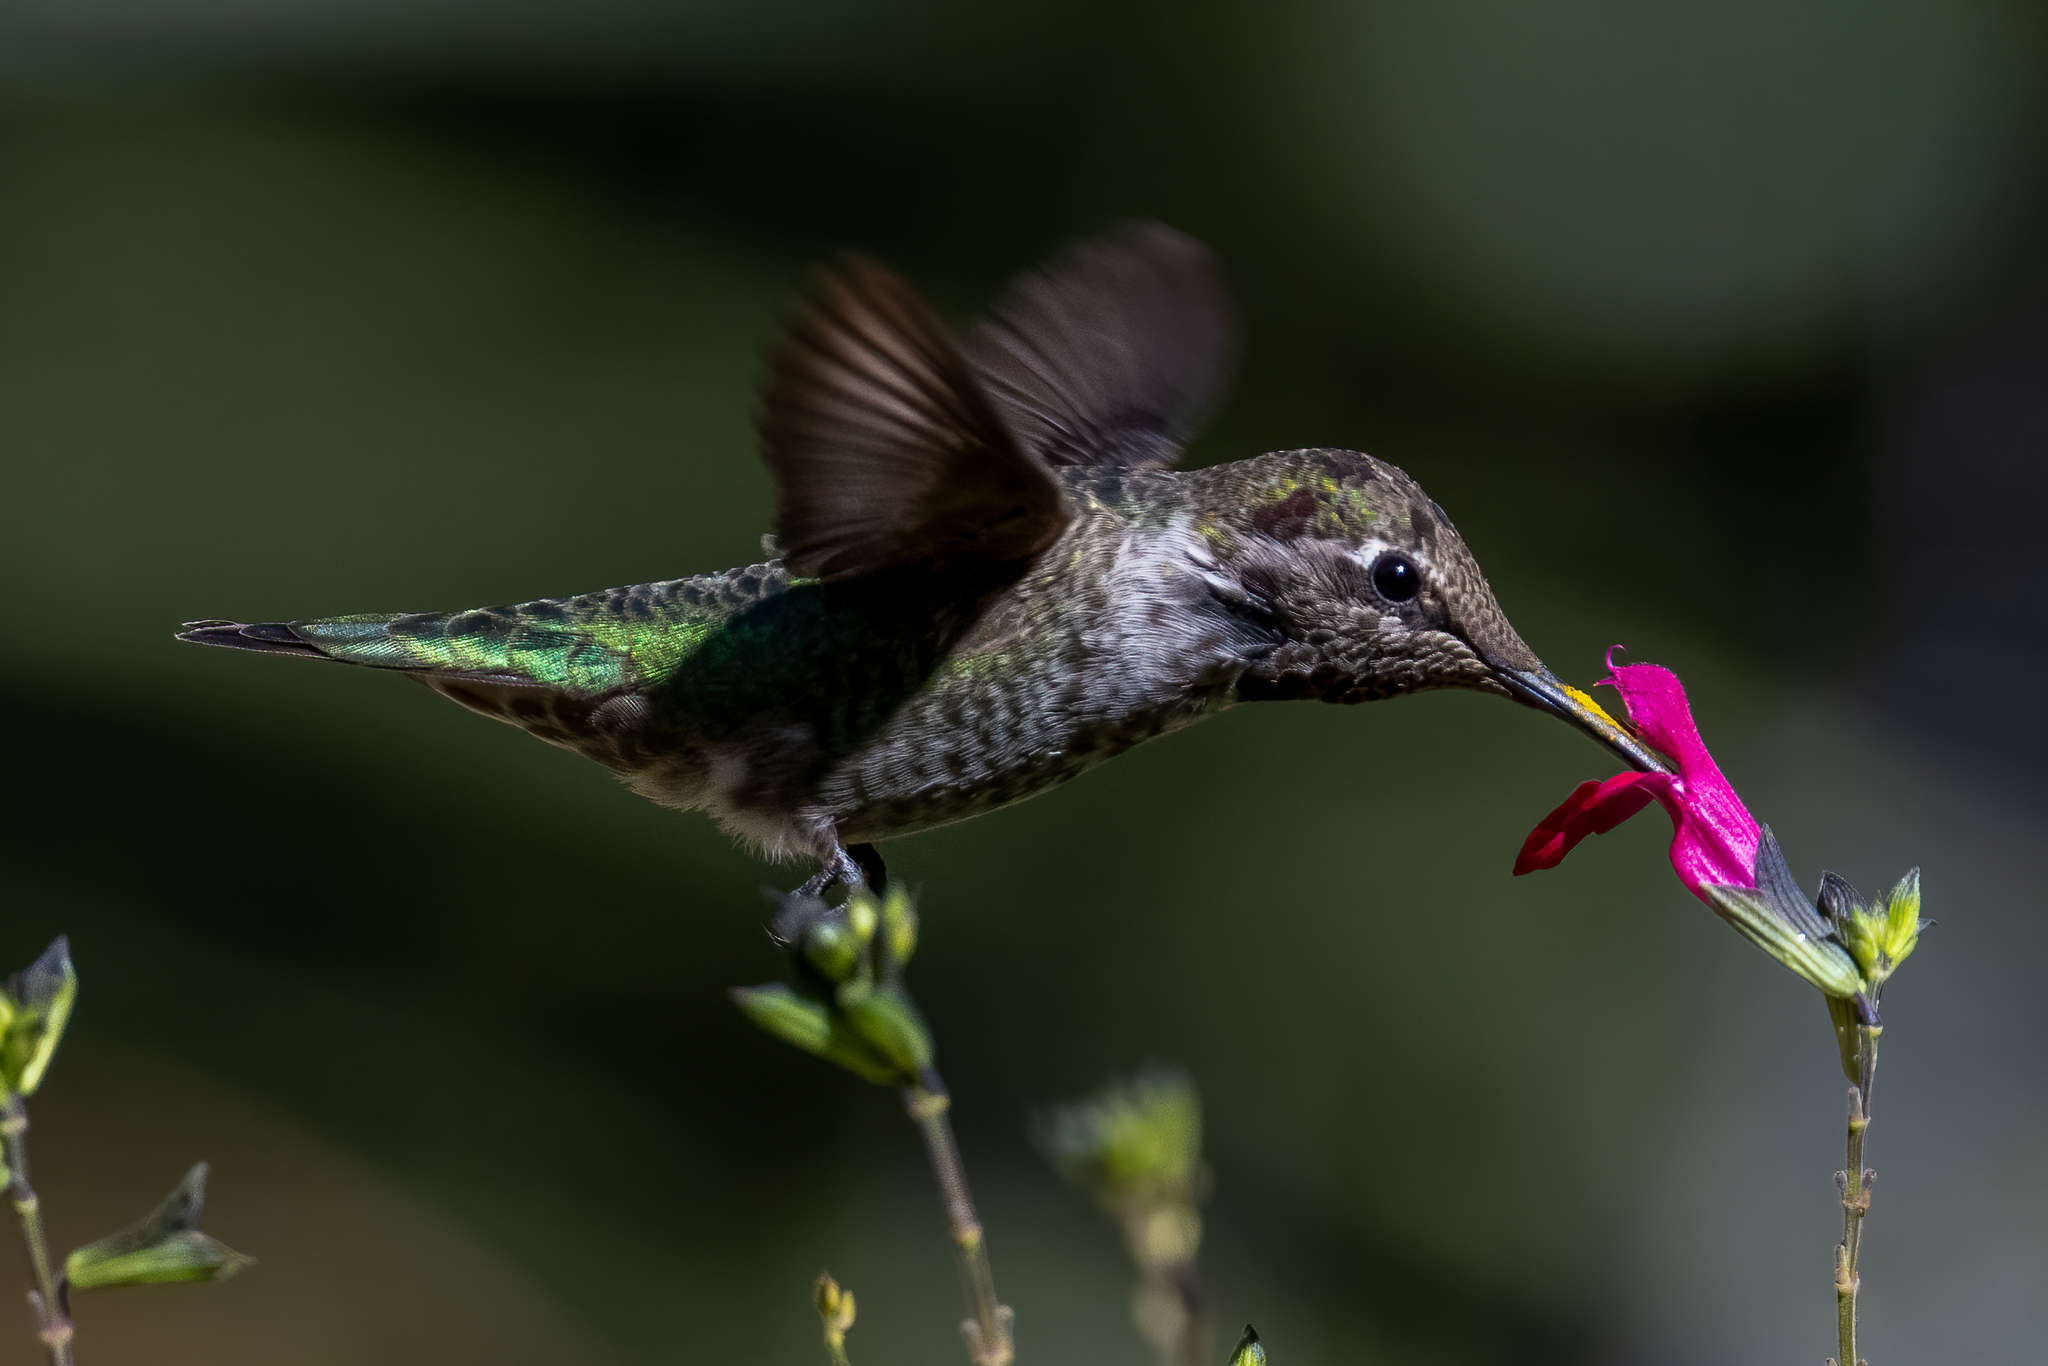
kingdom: Animalia
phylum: Chordata
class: Aves
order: Apodiformes
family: Trochilidae
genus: Calypte
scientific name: Calypte anna
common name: Anna's hummingbird
